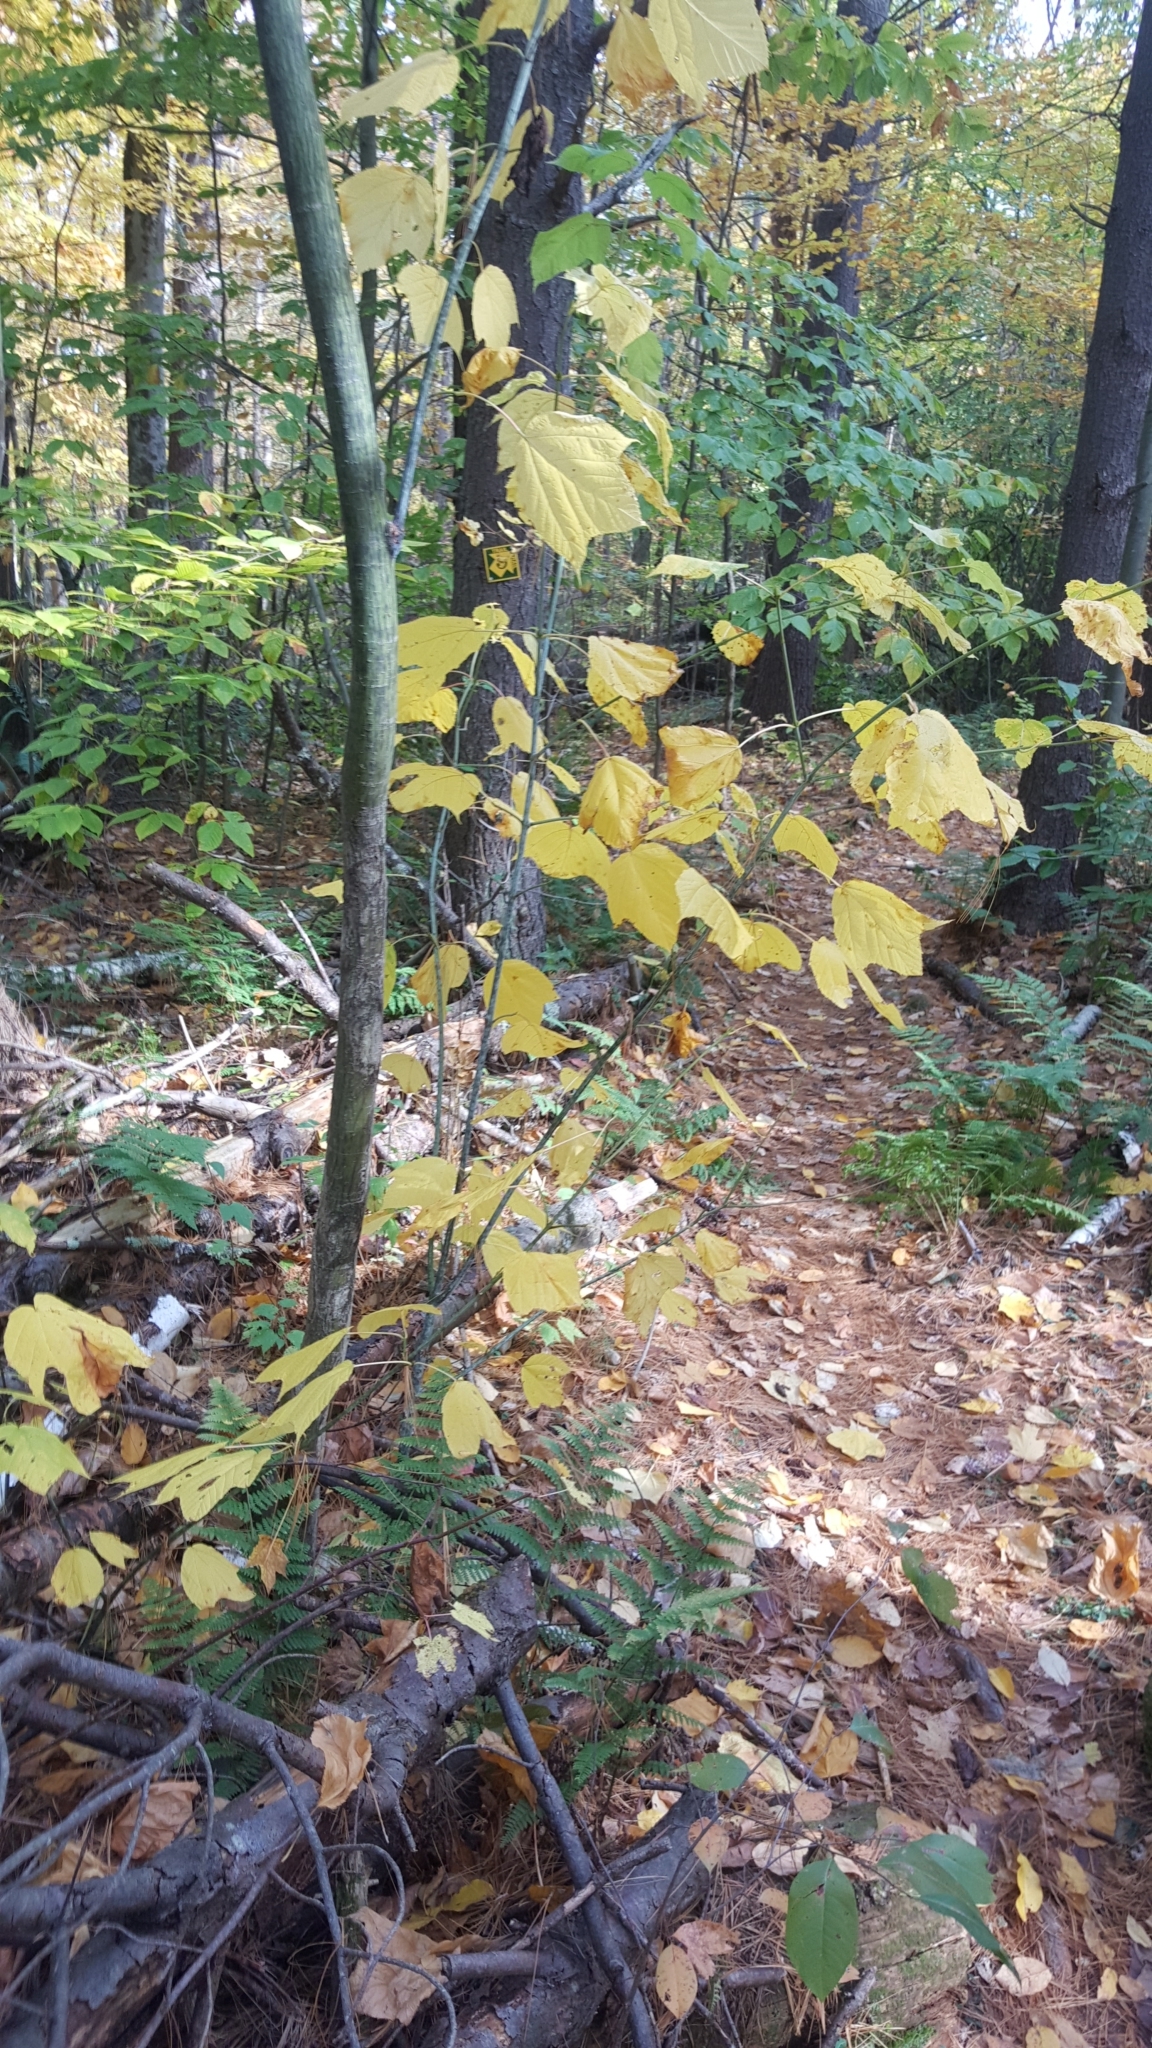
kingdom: Plantae
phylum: Tracheophyta
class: Magnoliopsida
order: Sapindales
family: Sapindaceae
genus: Acer
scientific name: Acer pensylvanicum
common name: Moosewood
